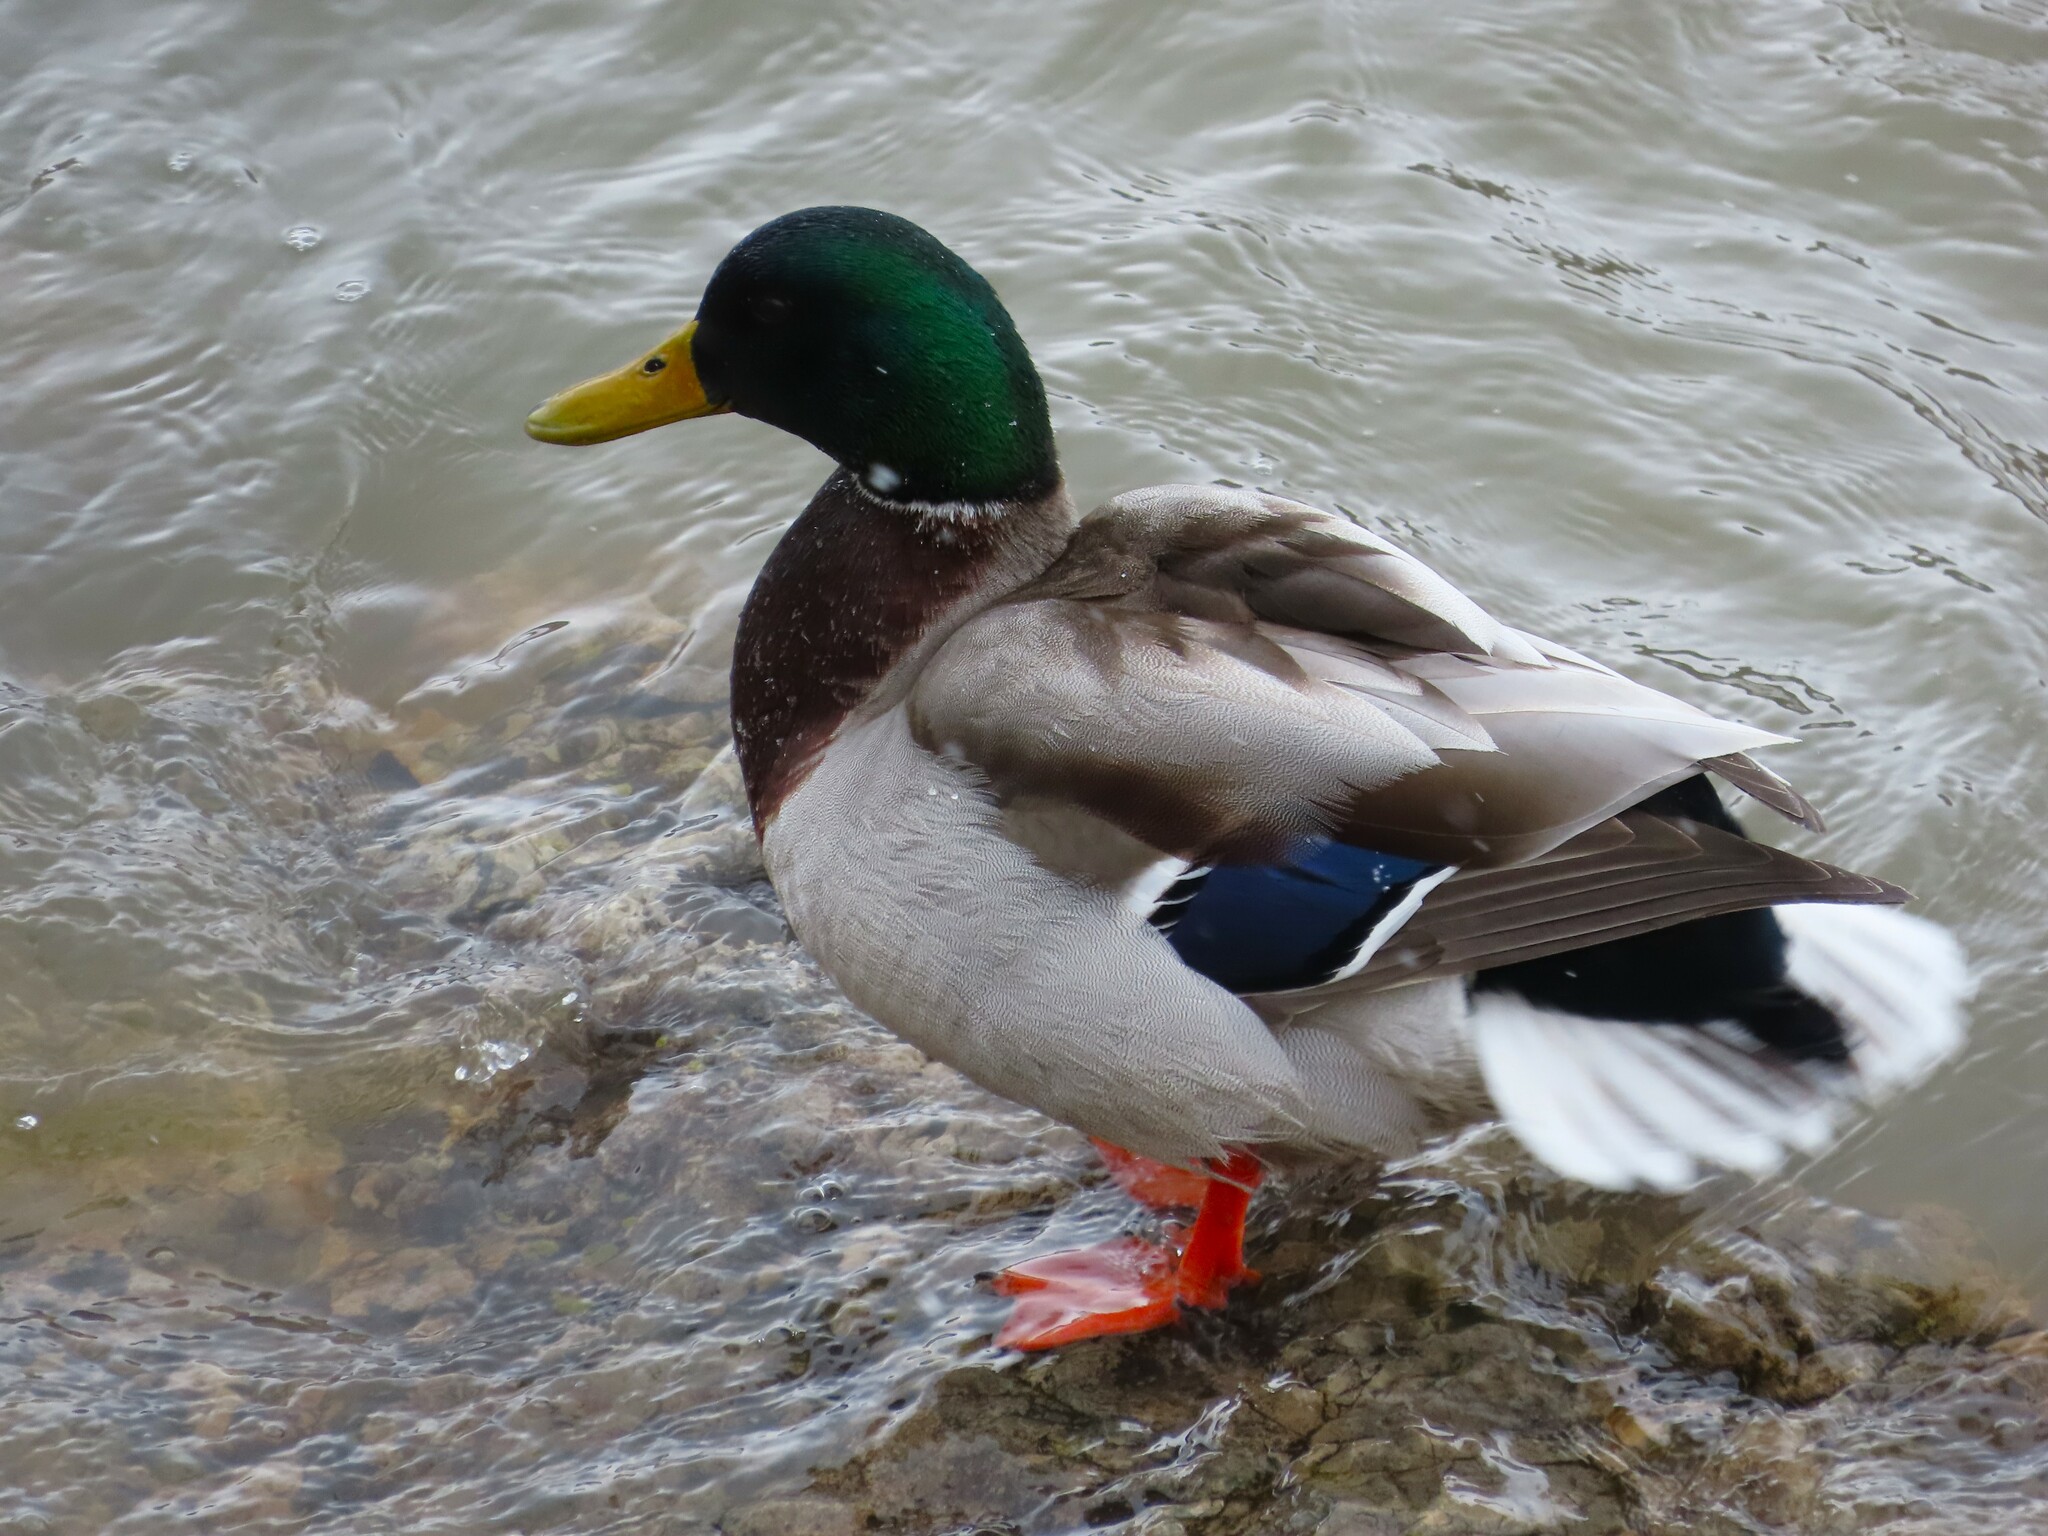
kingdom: Animalia
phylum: Chordata
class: Aves
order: Anseriformes
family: Anatidae
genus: Anas
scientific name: Anas platyrhynchos
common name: Mallard
